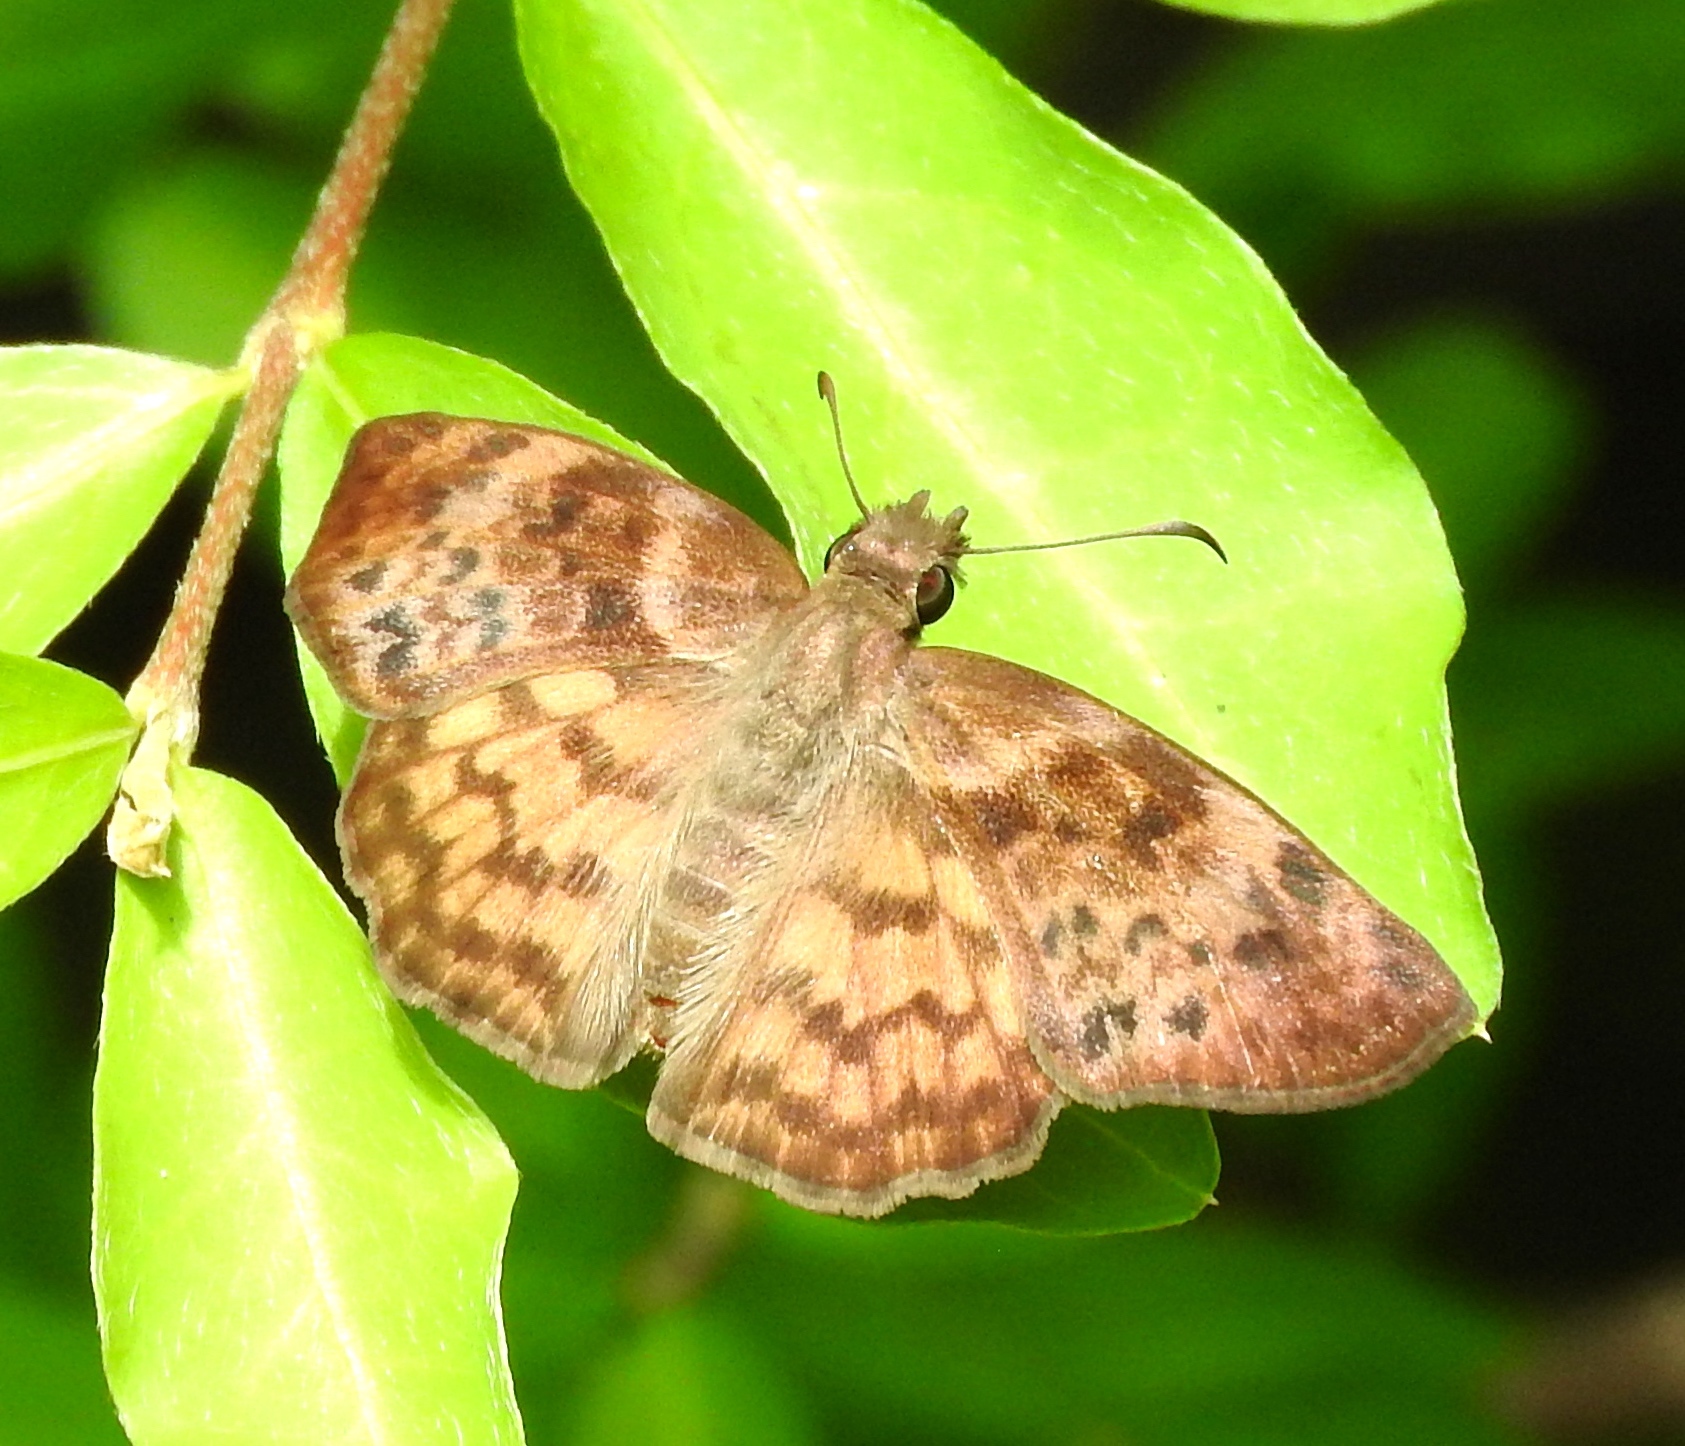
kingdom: Animalia
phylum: Arthropoda
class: Insecta
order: Lepidoptera
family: Hesperiidae
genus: Timochares
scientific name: Timochares ruptifasciata
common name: Brown-banded skipper
